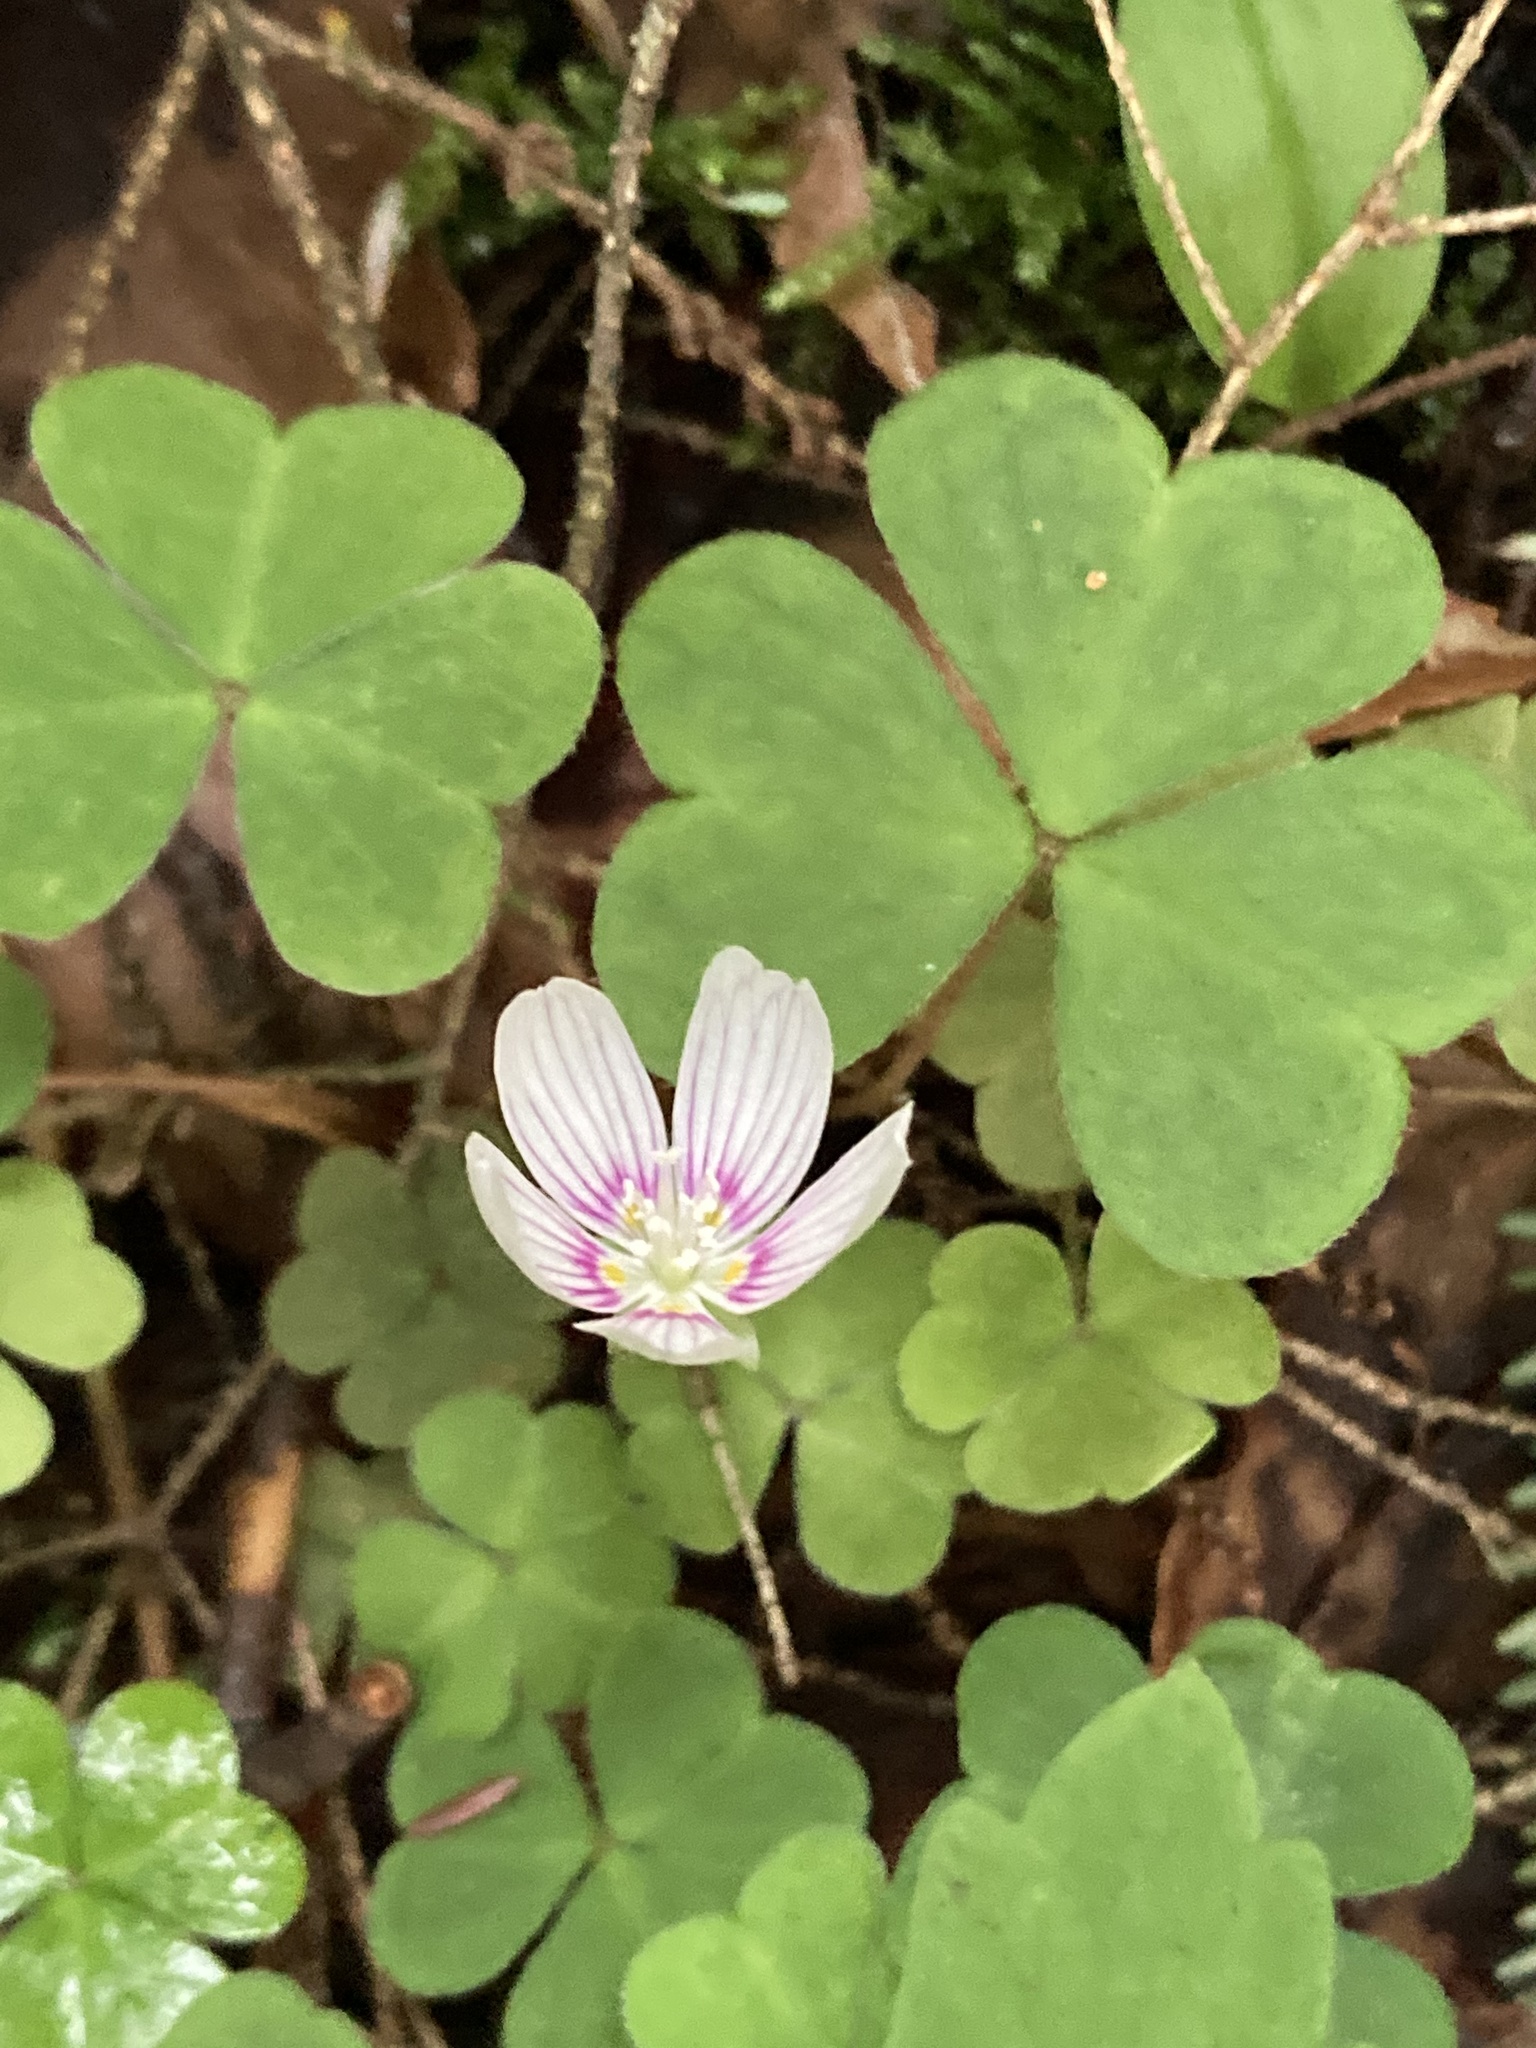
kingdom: Plantae
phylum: Tracheophyta
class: Magnoliopsida
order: Oxalidales
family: Oxalidaceae
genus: Oxalis
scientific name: Oxalis montana
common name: American wood-sorrel
